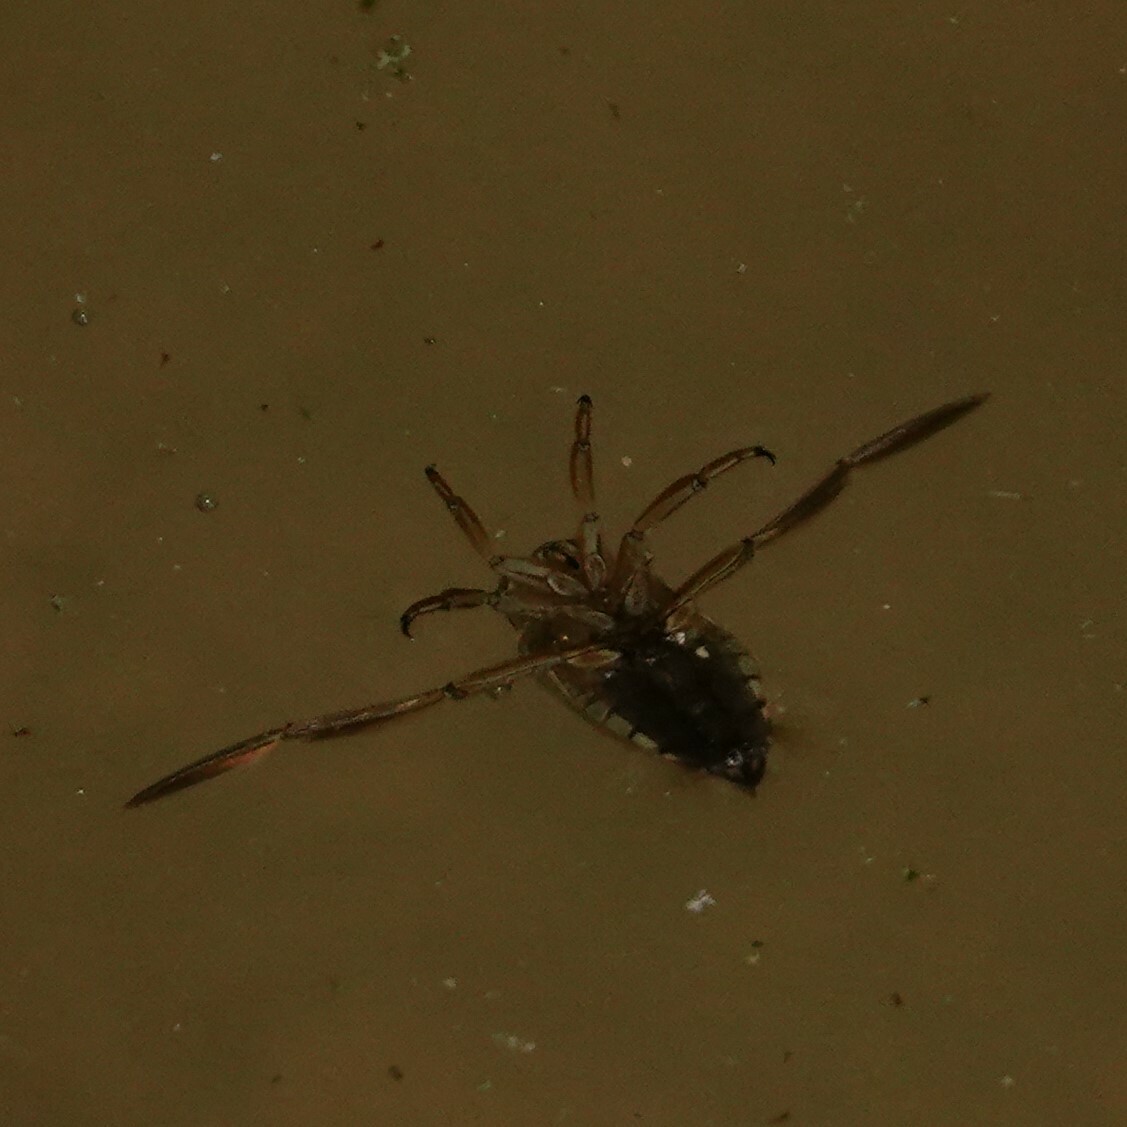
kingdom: Animalia
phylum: Arthropoda
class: Insecta
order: Hemiptera
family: Notonectidae
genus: Notonecta
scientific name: Notonecta
